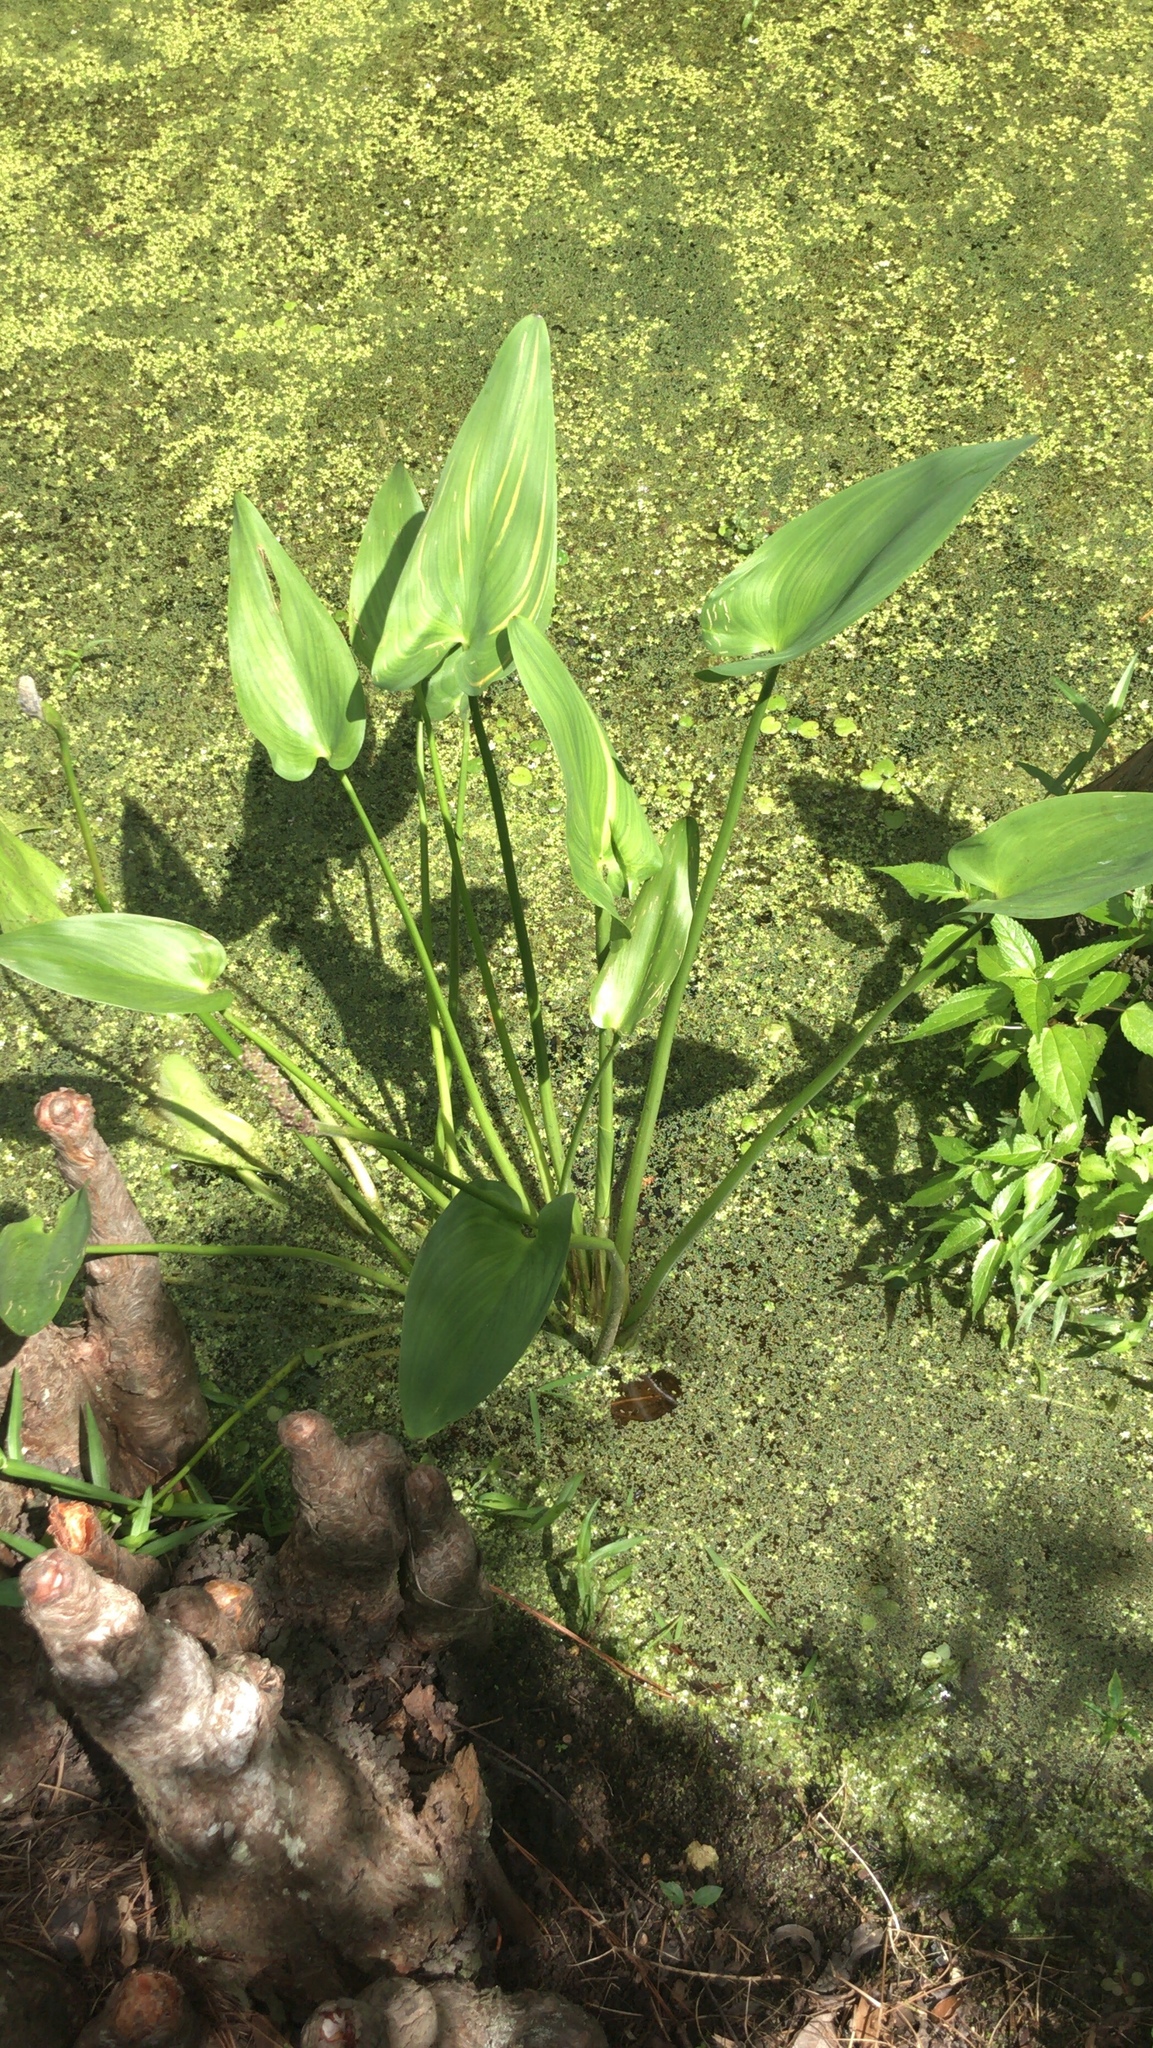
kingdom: Plantae
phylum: Tracheophyta
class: Liliopsida
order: Commelinales
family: Pontederiaceae
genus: Pontederia
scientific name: Pontederia cordata
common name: Pickerelweed
